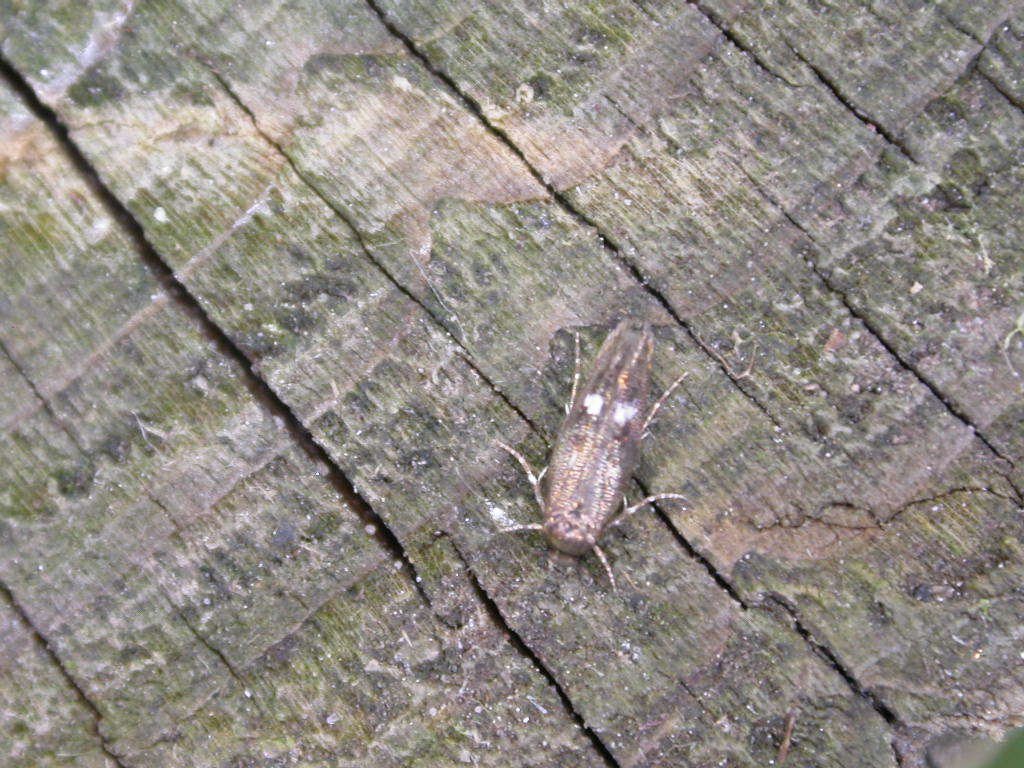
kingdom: Animalia
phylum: Arthropoda
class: Insecta
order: Lepidoptera
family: Momphidae
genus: Mompha
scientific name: Mompha langiella
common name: Clouded cosmet
